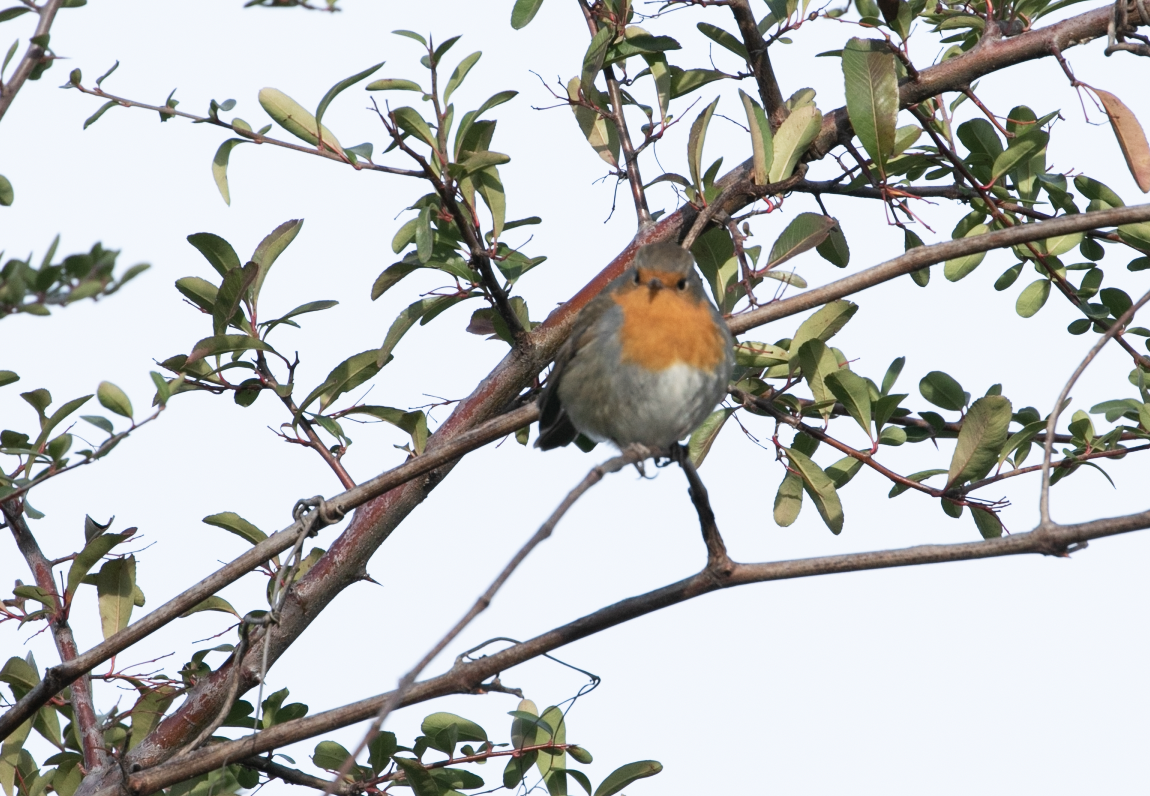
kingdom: Animalia
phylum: Chordata
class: Aves
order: Passeriformes
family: Muscicapidae
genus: Erithacus
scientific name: Erithacus rubecula
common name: European robin
